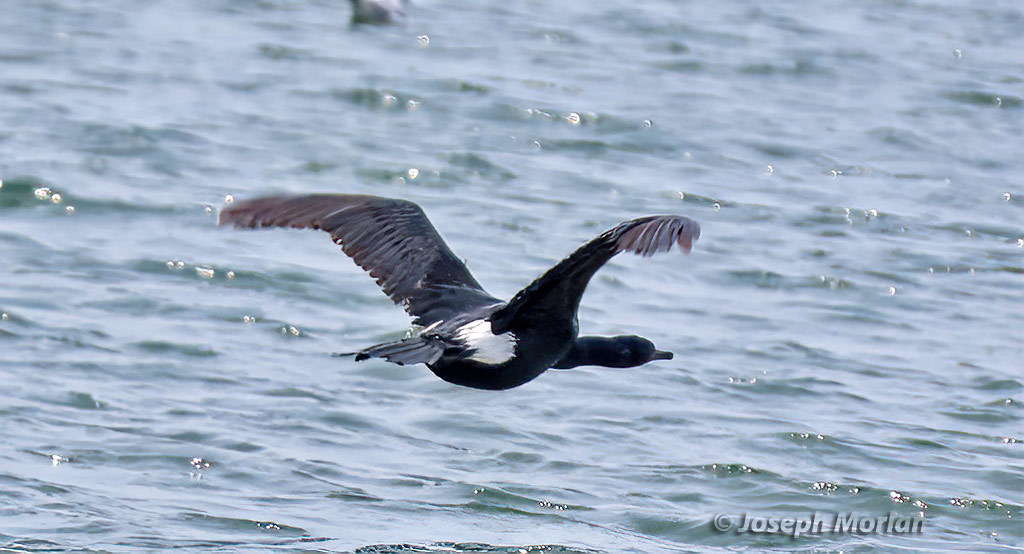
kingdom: Animalia
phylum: Chordata
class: Aves
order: Suliformes
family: Phalacrocoracidae
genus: Phalacrocorax
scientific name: Phalacrocorax pelagicus
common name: Pelagic cormorant
